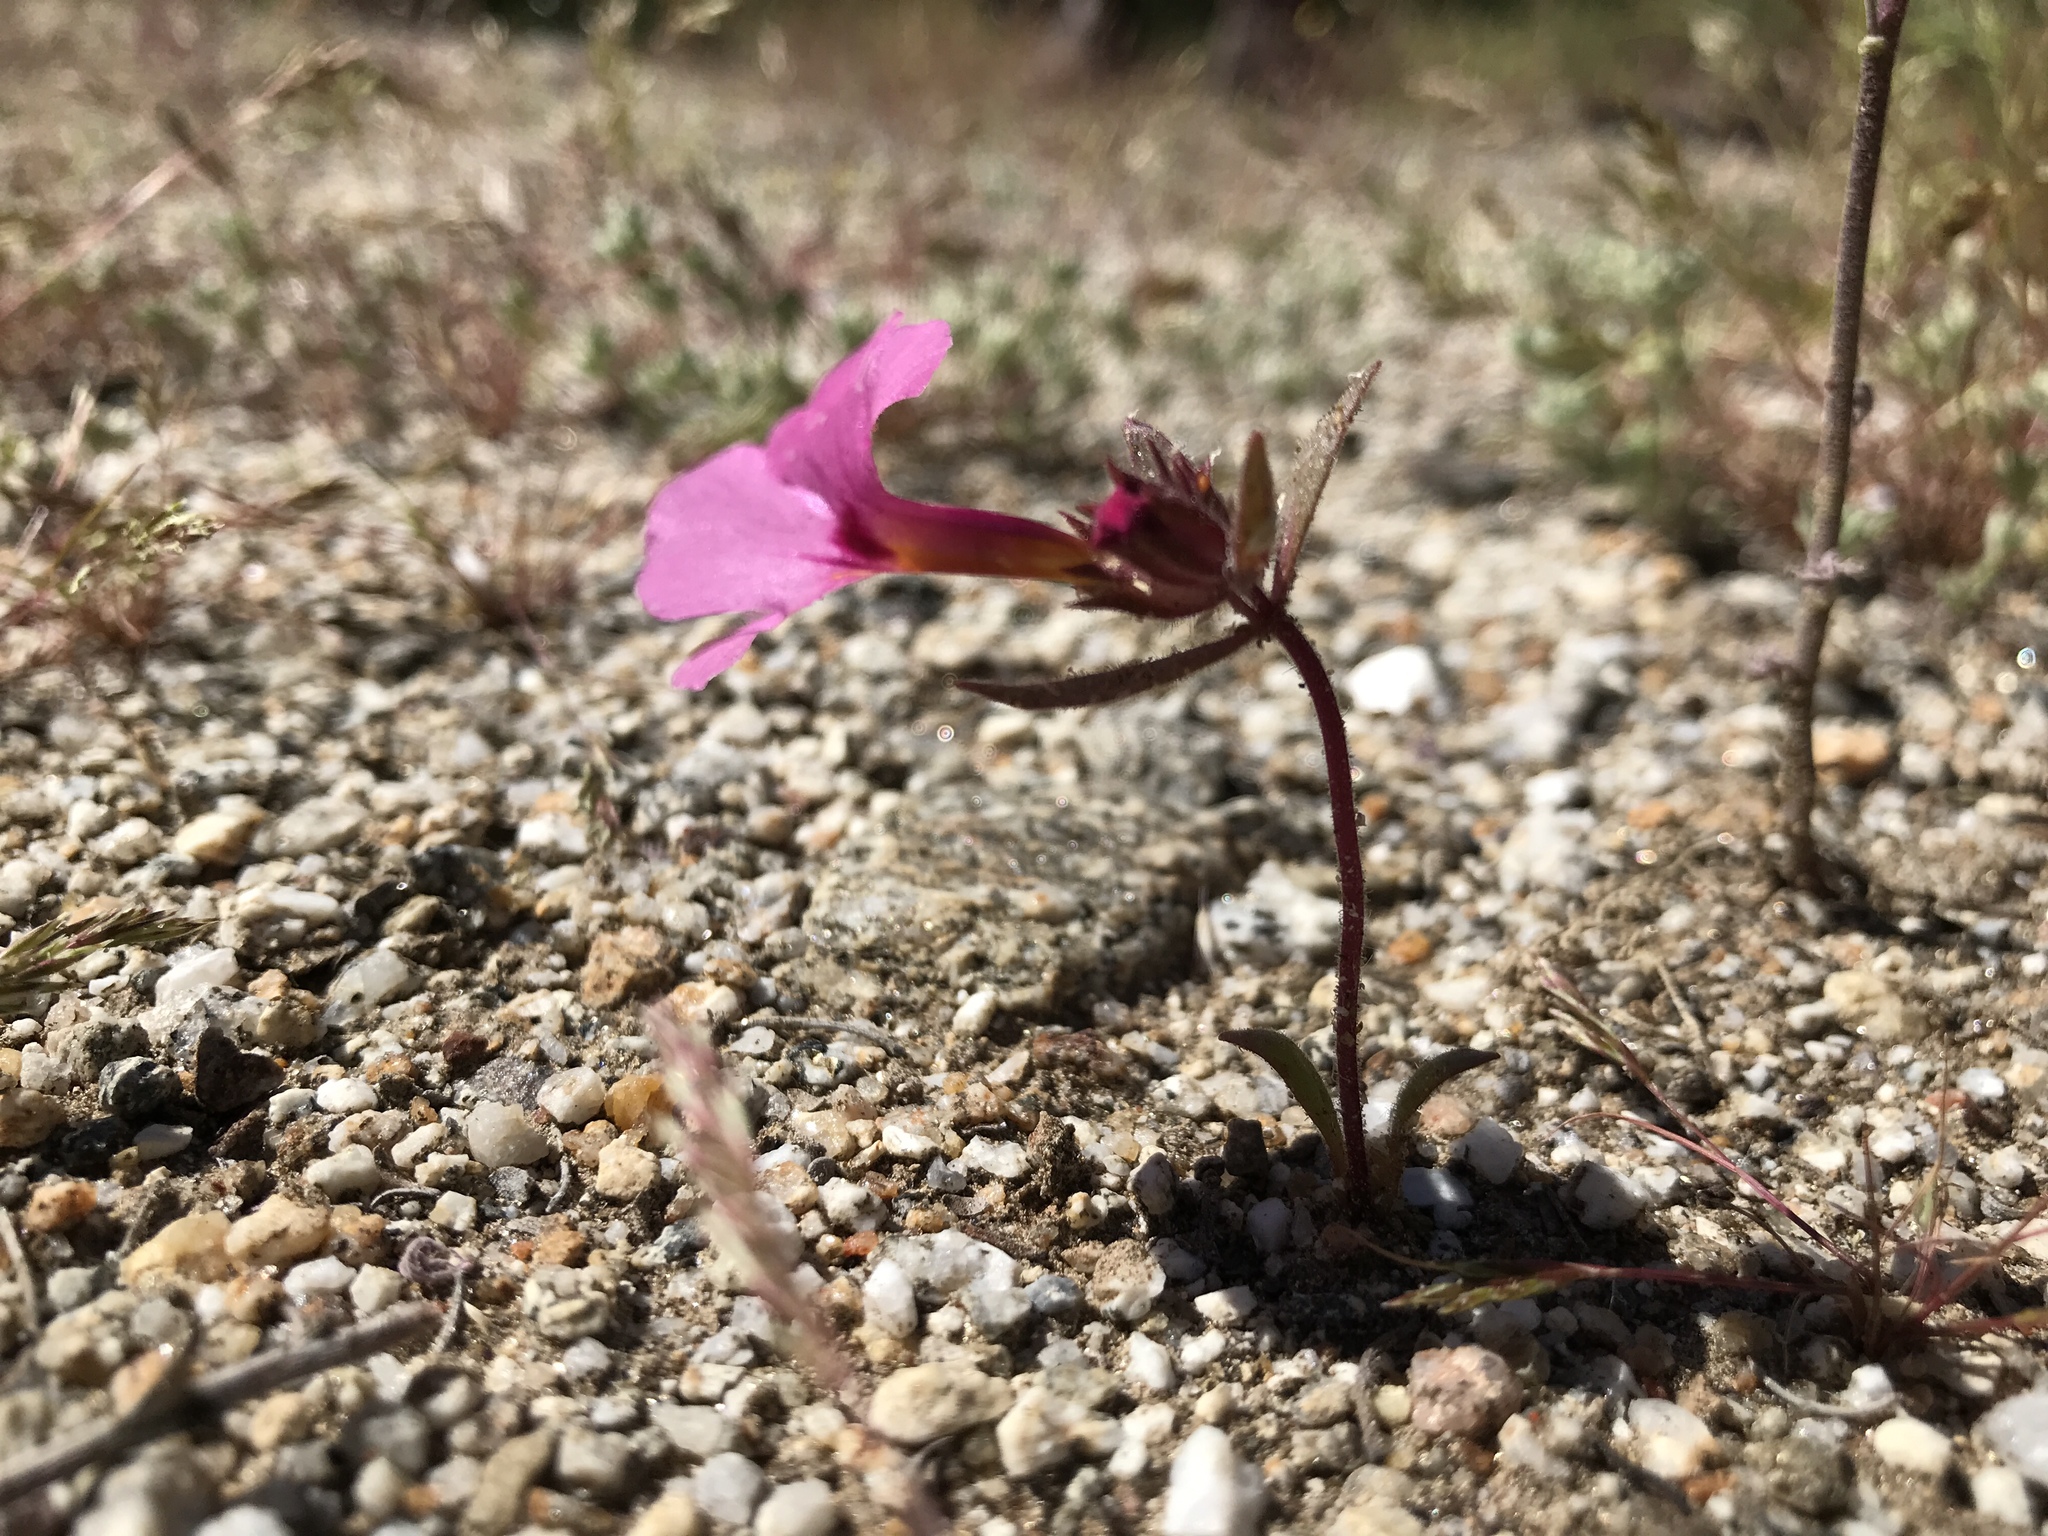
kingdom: Plantae
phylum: Tracheophyta
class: Magnoliopsida
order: Lamiales
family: Phrymaceae
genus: Diplacus
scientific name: Diplacus bigelovii
